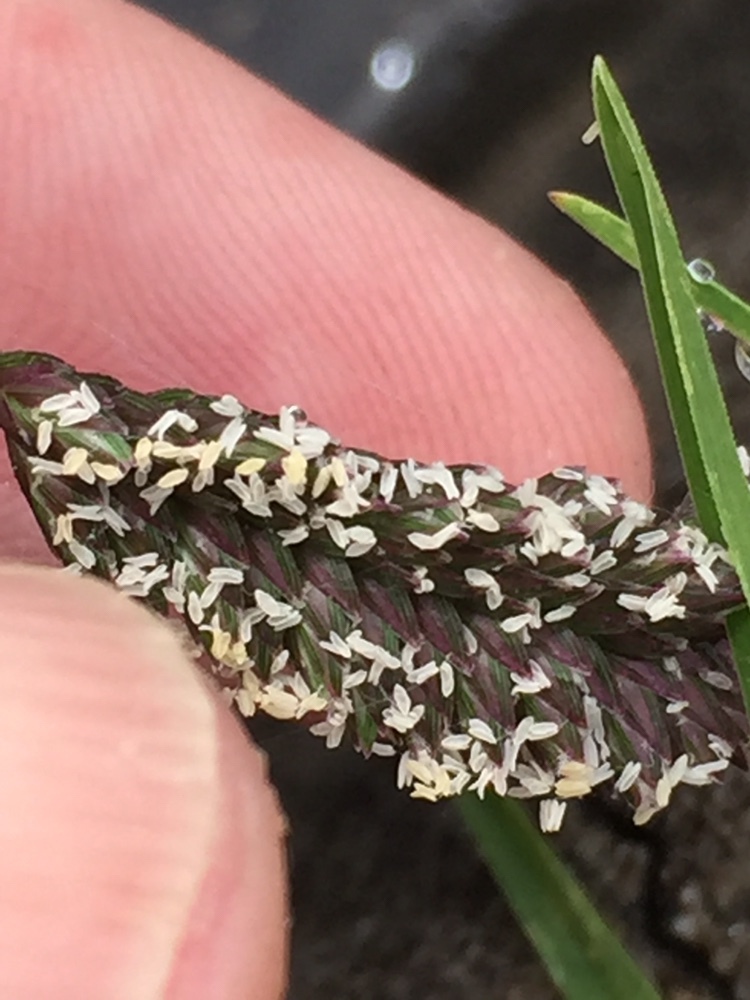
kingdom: Plantae
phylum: Tracheophyta
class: Liliopsida
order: Poales
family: Poaceae
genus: Eleusine
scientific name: Eleusine tristachya
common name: American yard-grass
